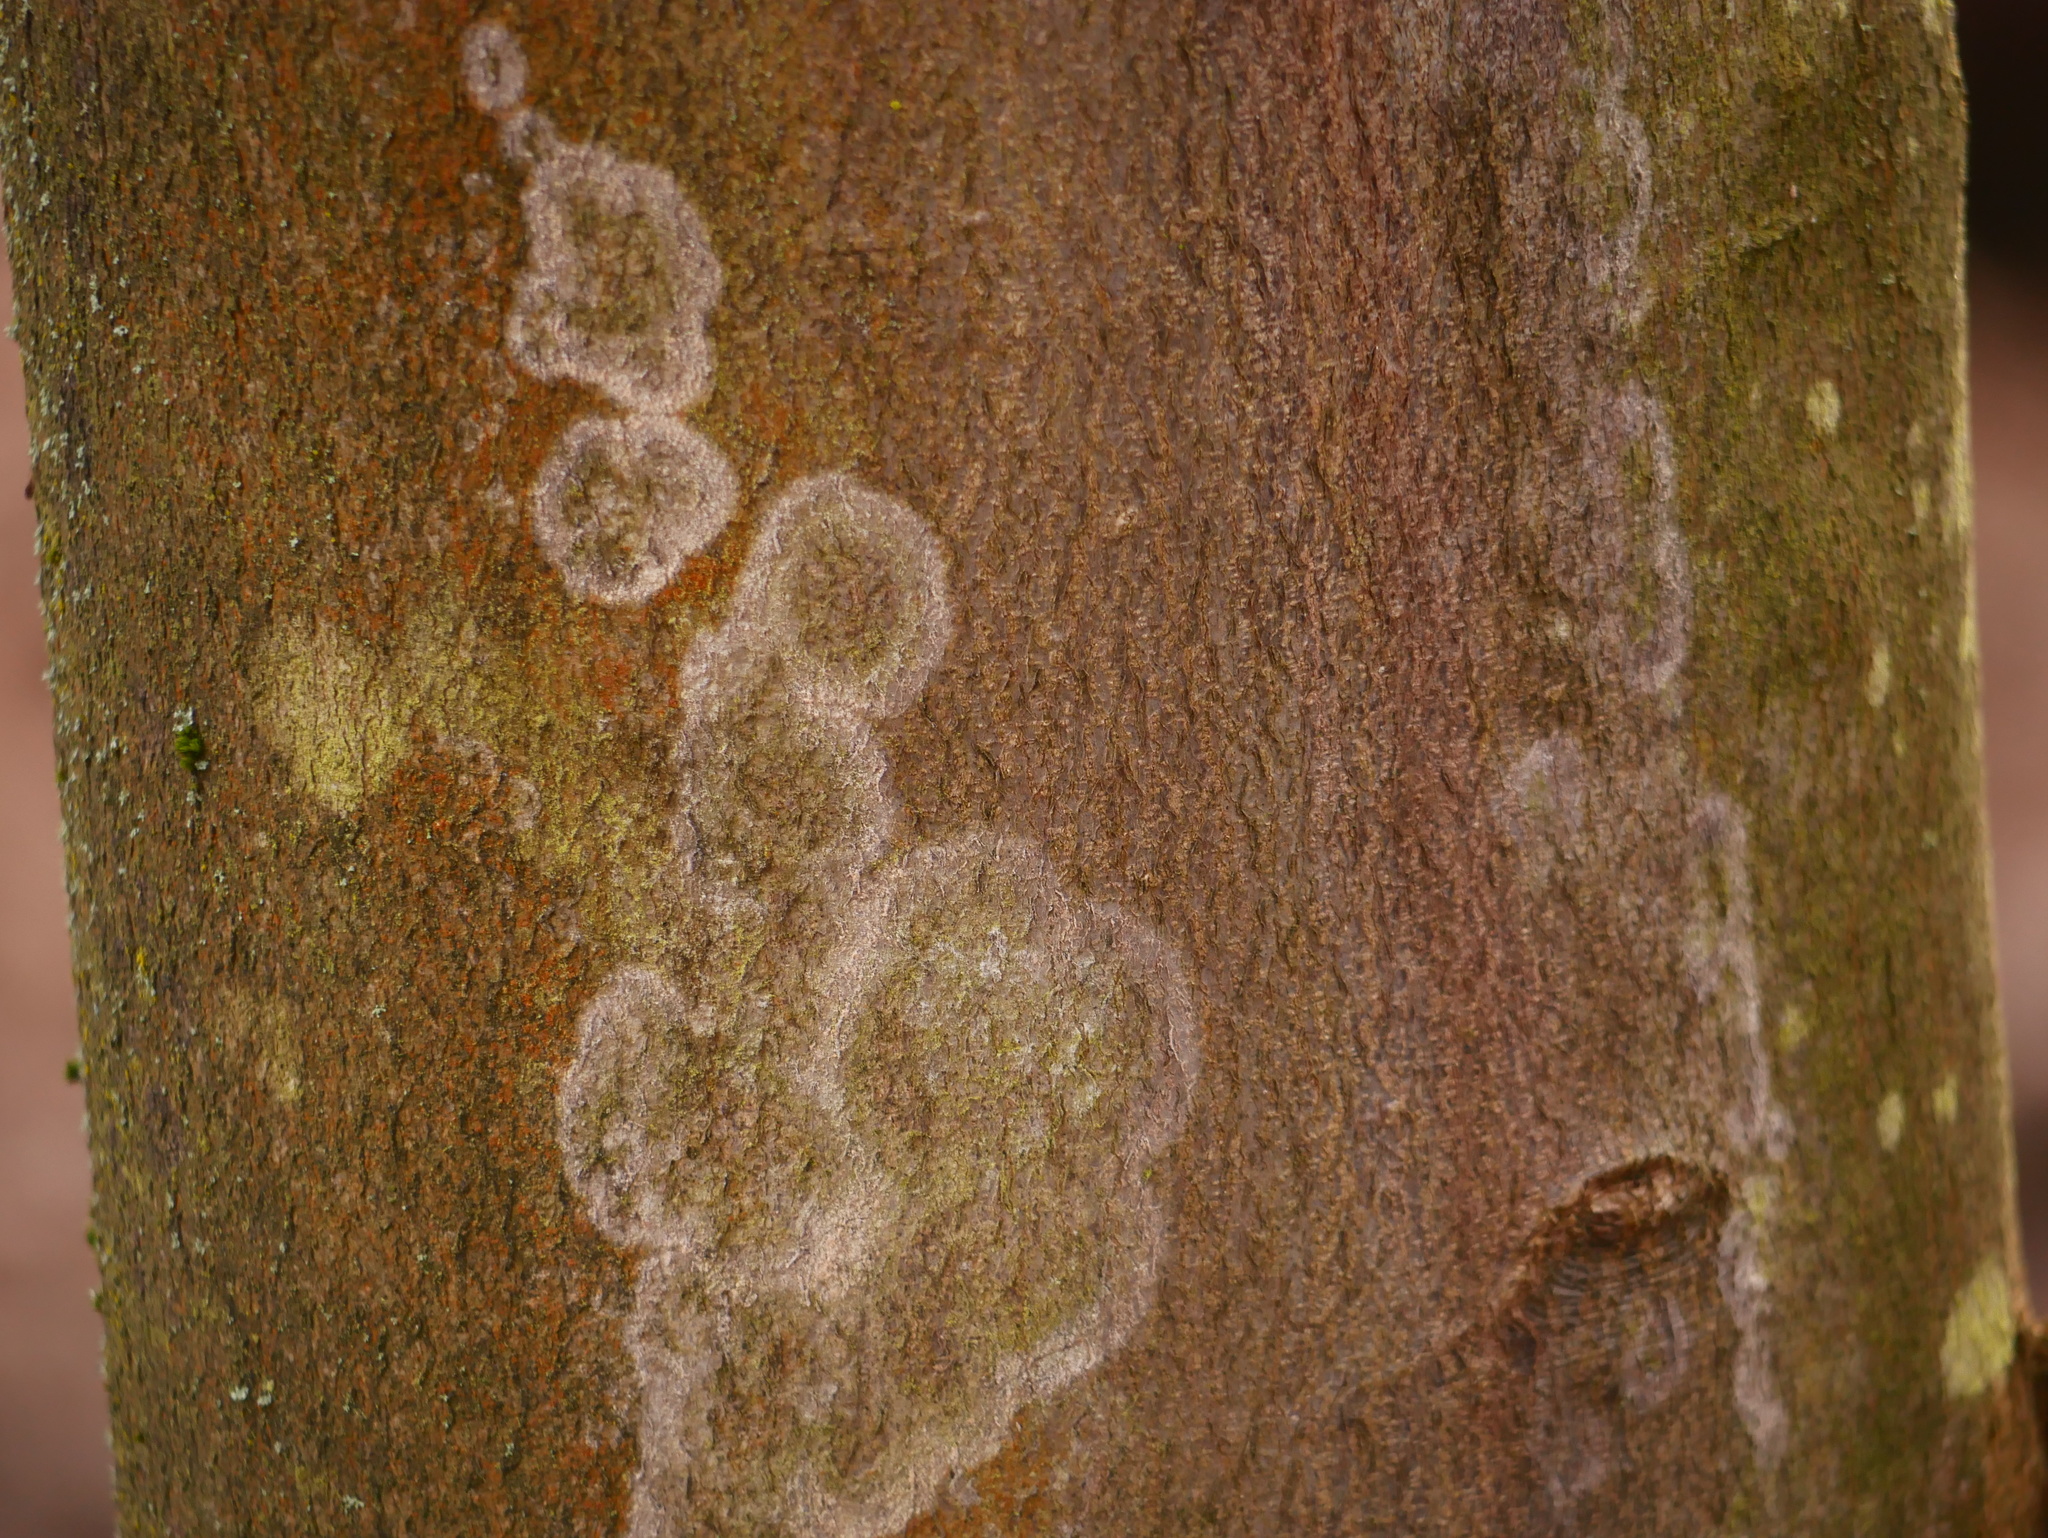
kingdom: Fungi
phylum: Basidiomycota
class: Agaricomycetes
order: Atheliales
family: Atheliaceae
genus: Athelia
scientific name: Athelia arachnoidea
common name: Candelabra duster
